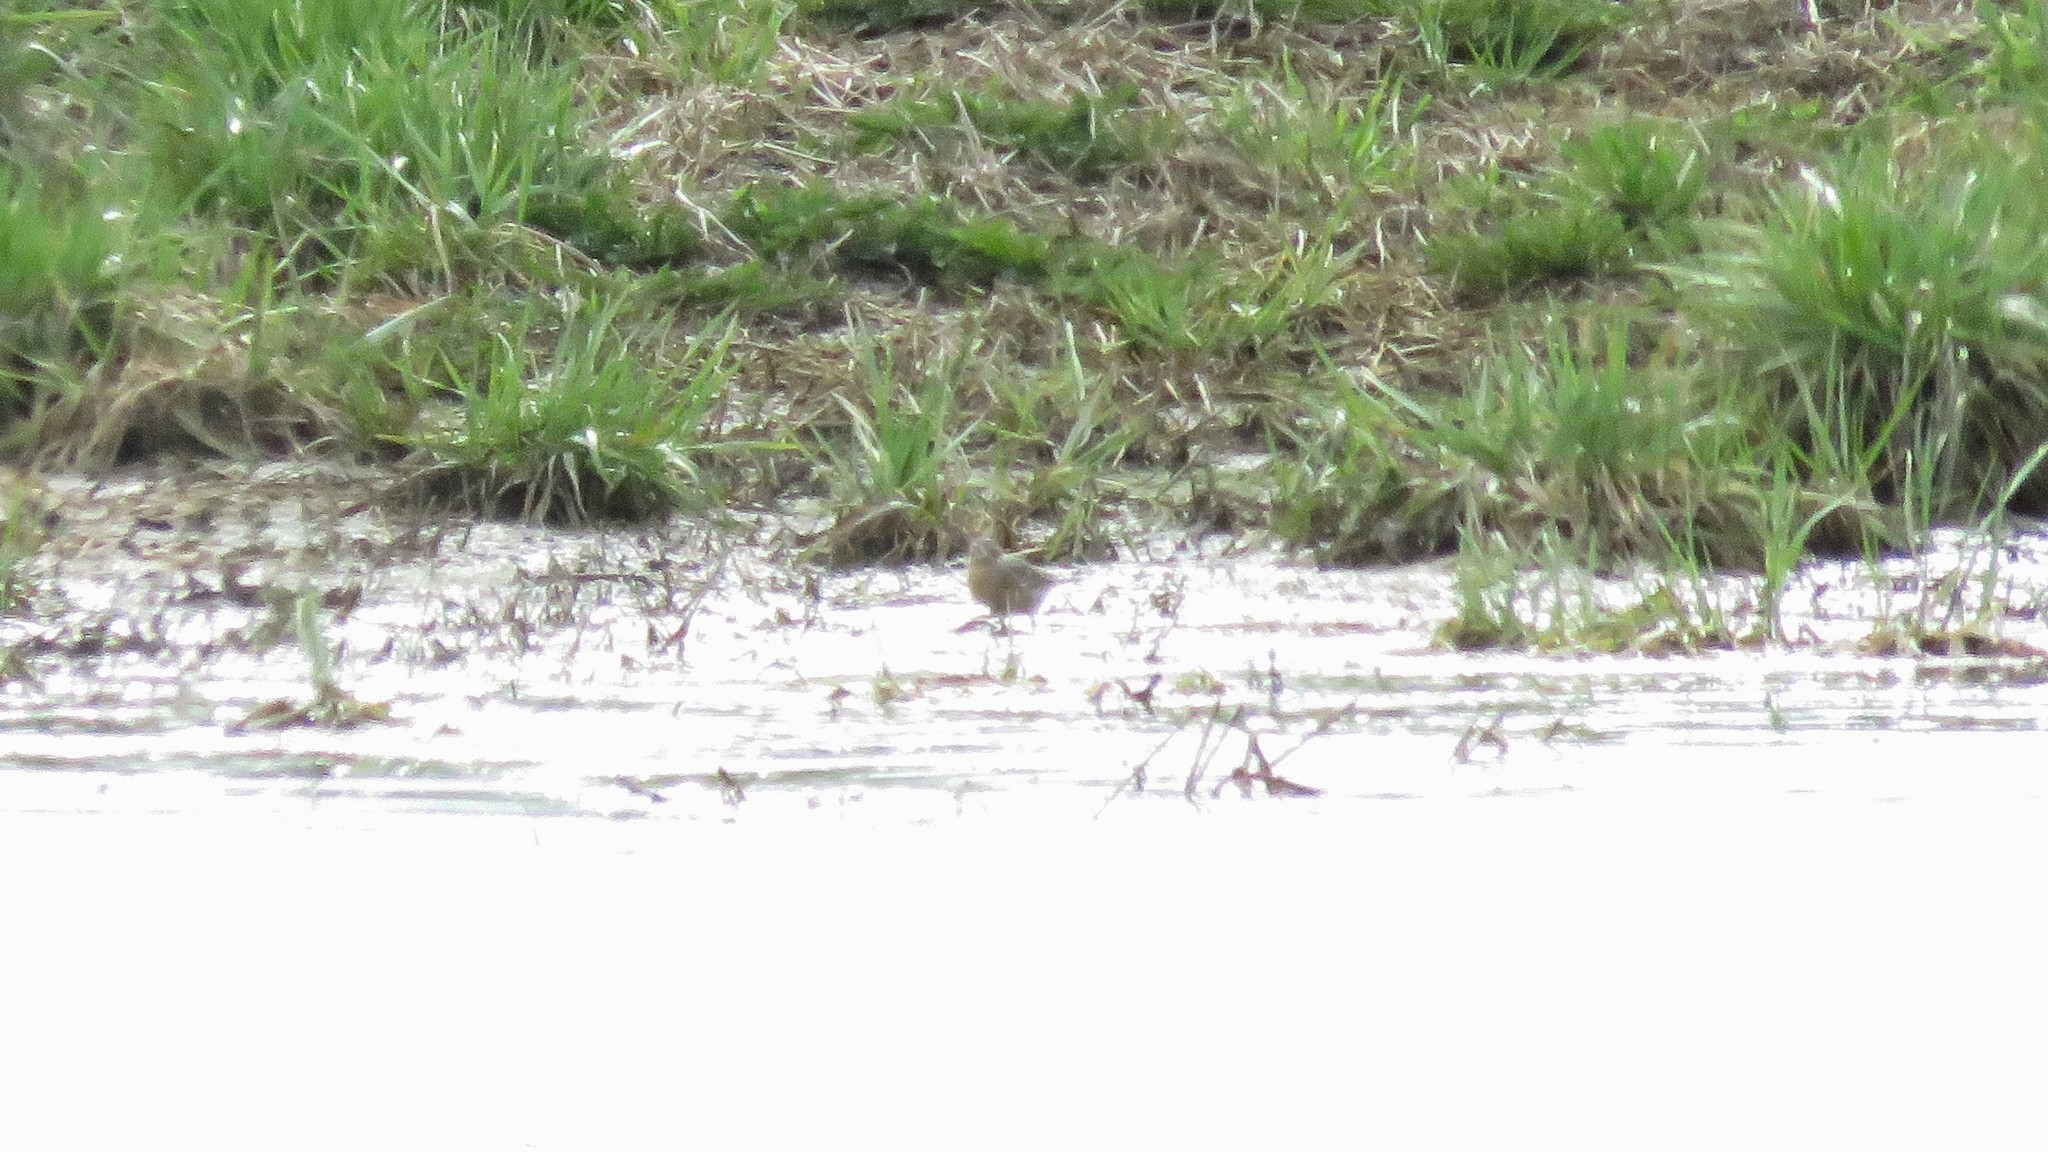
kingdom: Animalia
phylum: Chordata
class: Aves
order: Passeriformes
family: Motacillidae
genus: Anthus
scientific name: Anthus rubescens
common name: Buff-bellied pipit
